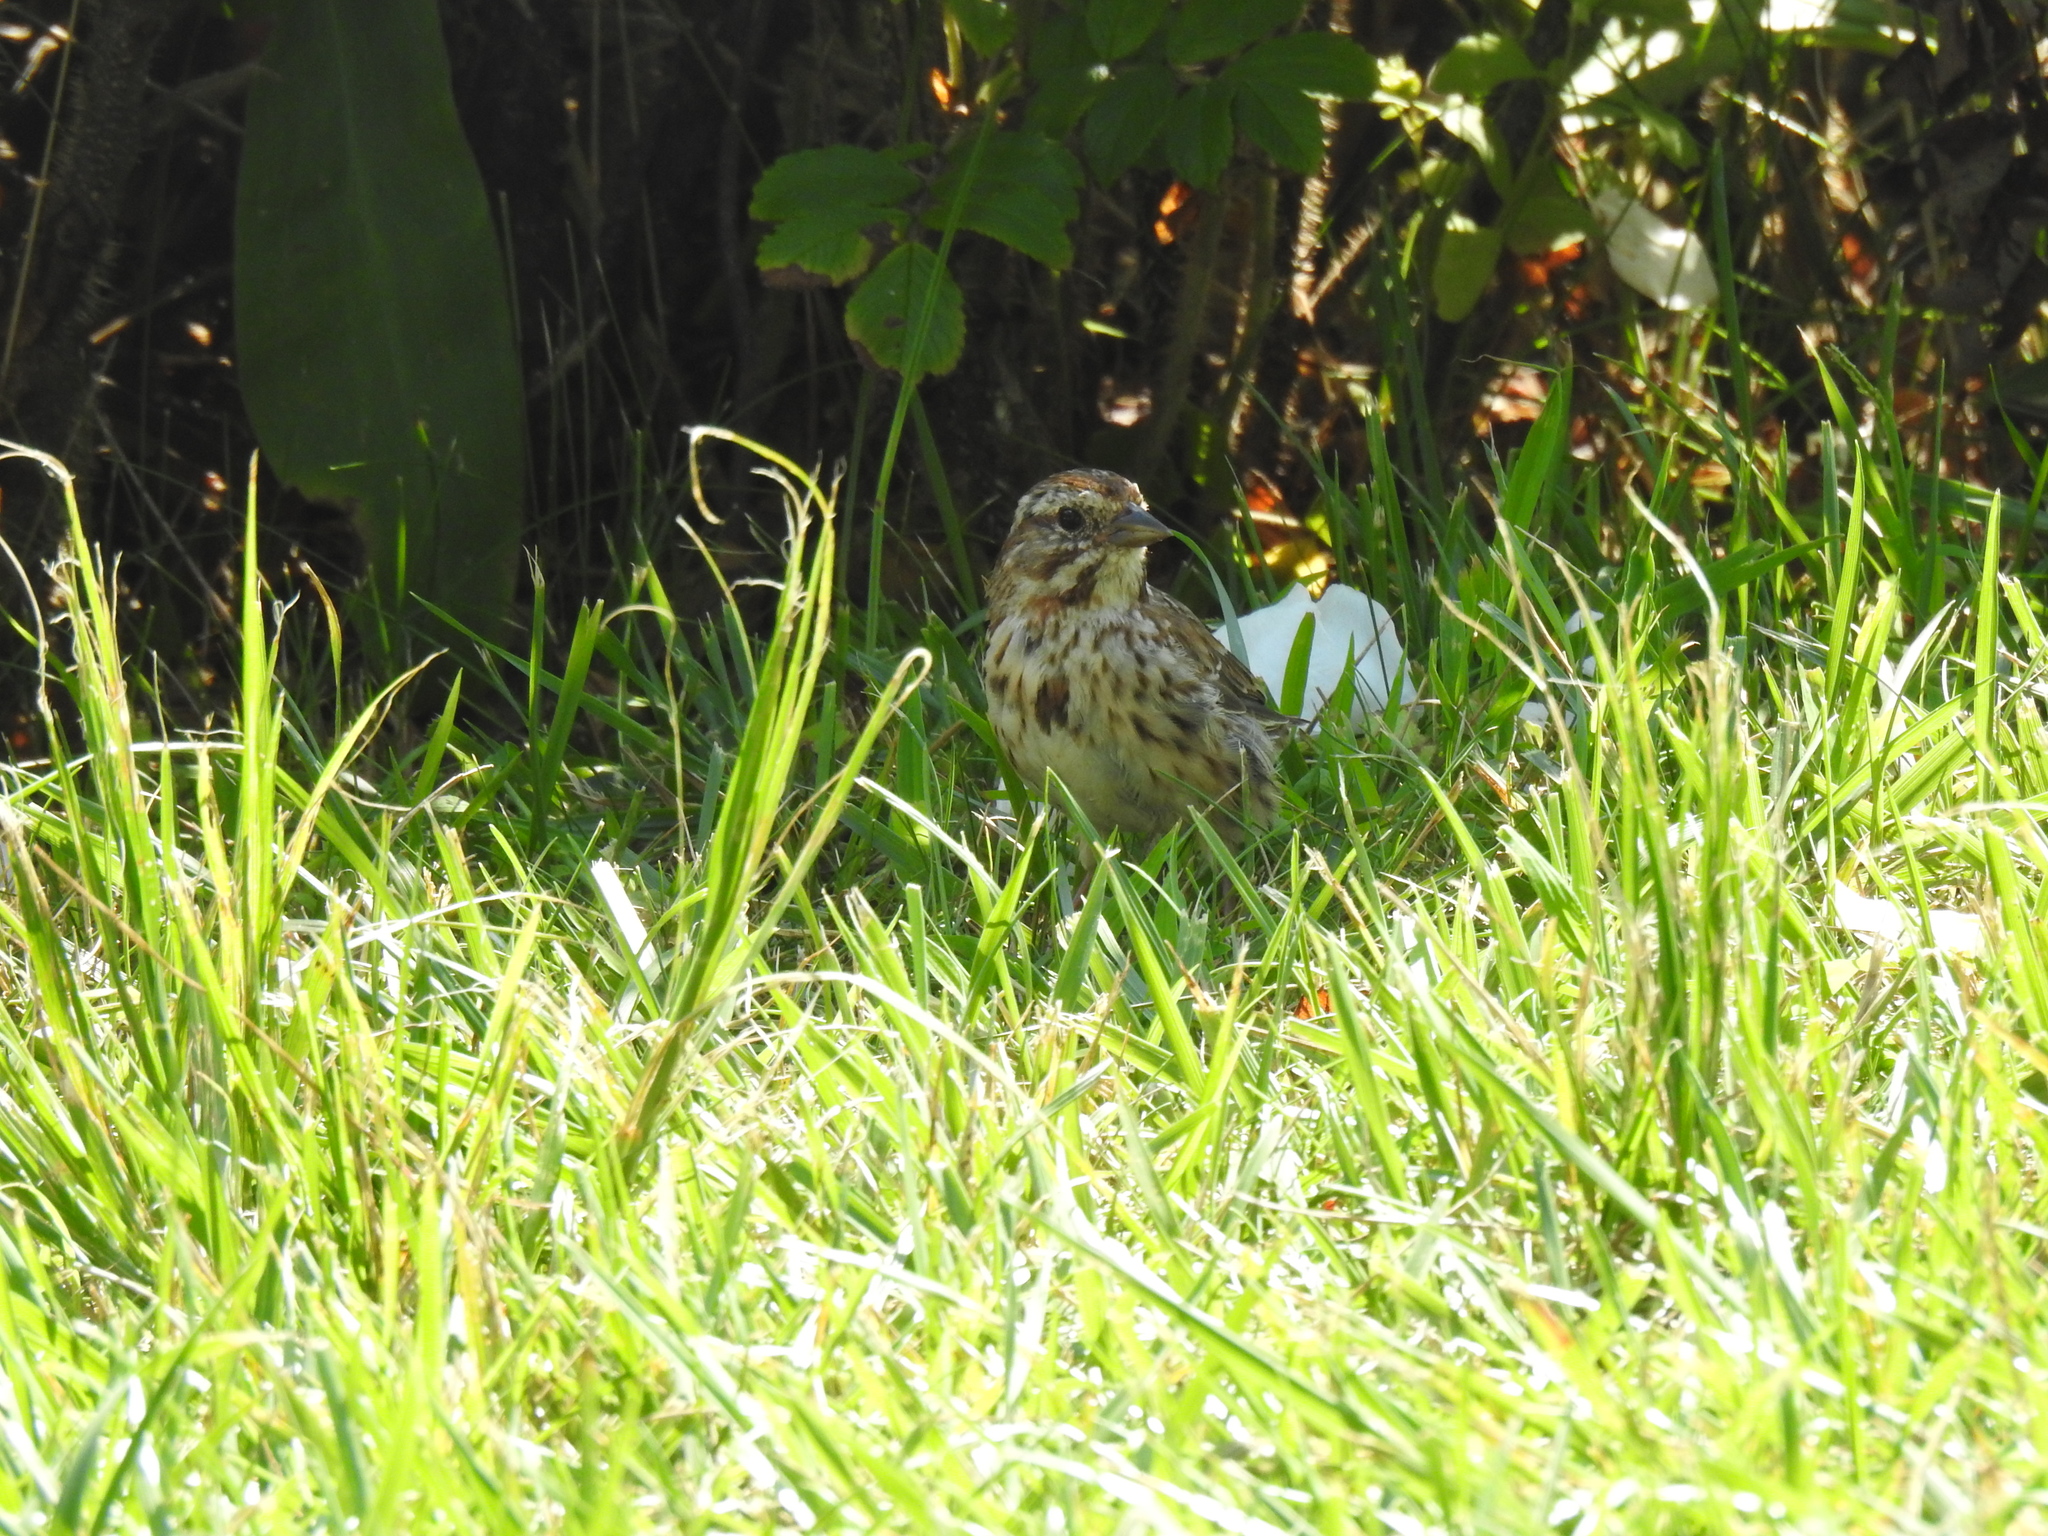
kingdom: Animalia
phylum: Chordata
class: Aves
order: Passeriformes
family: Passerellidae
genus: Melospiza
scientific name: Melospiza melodia
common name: Song sparrow
